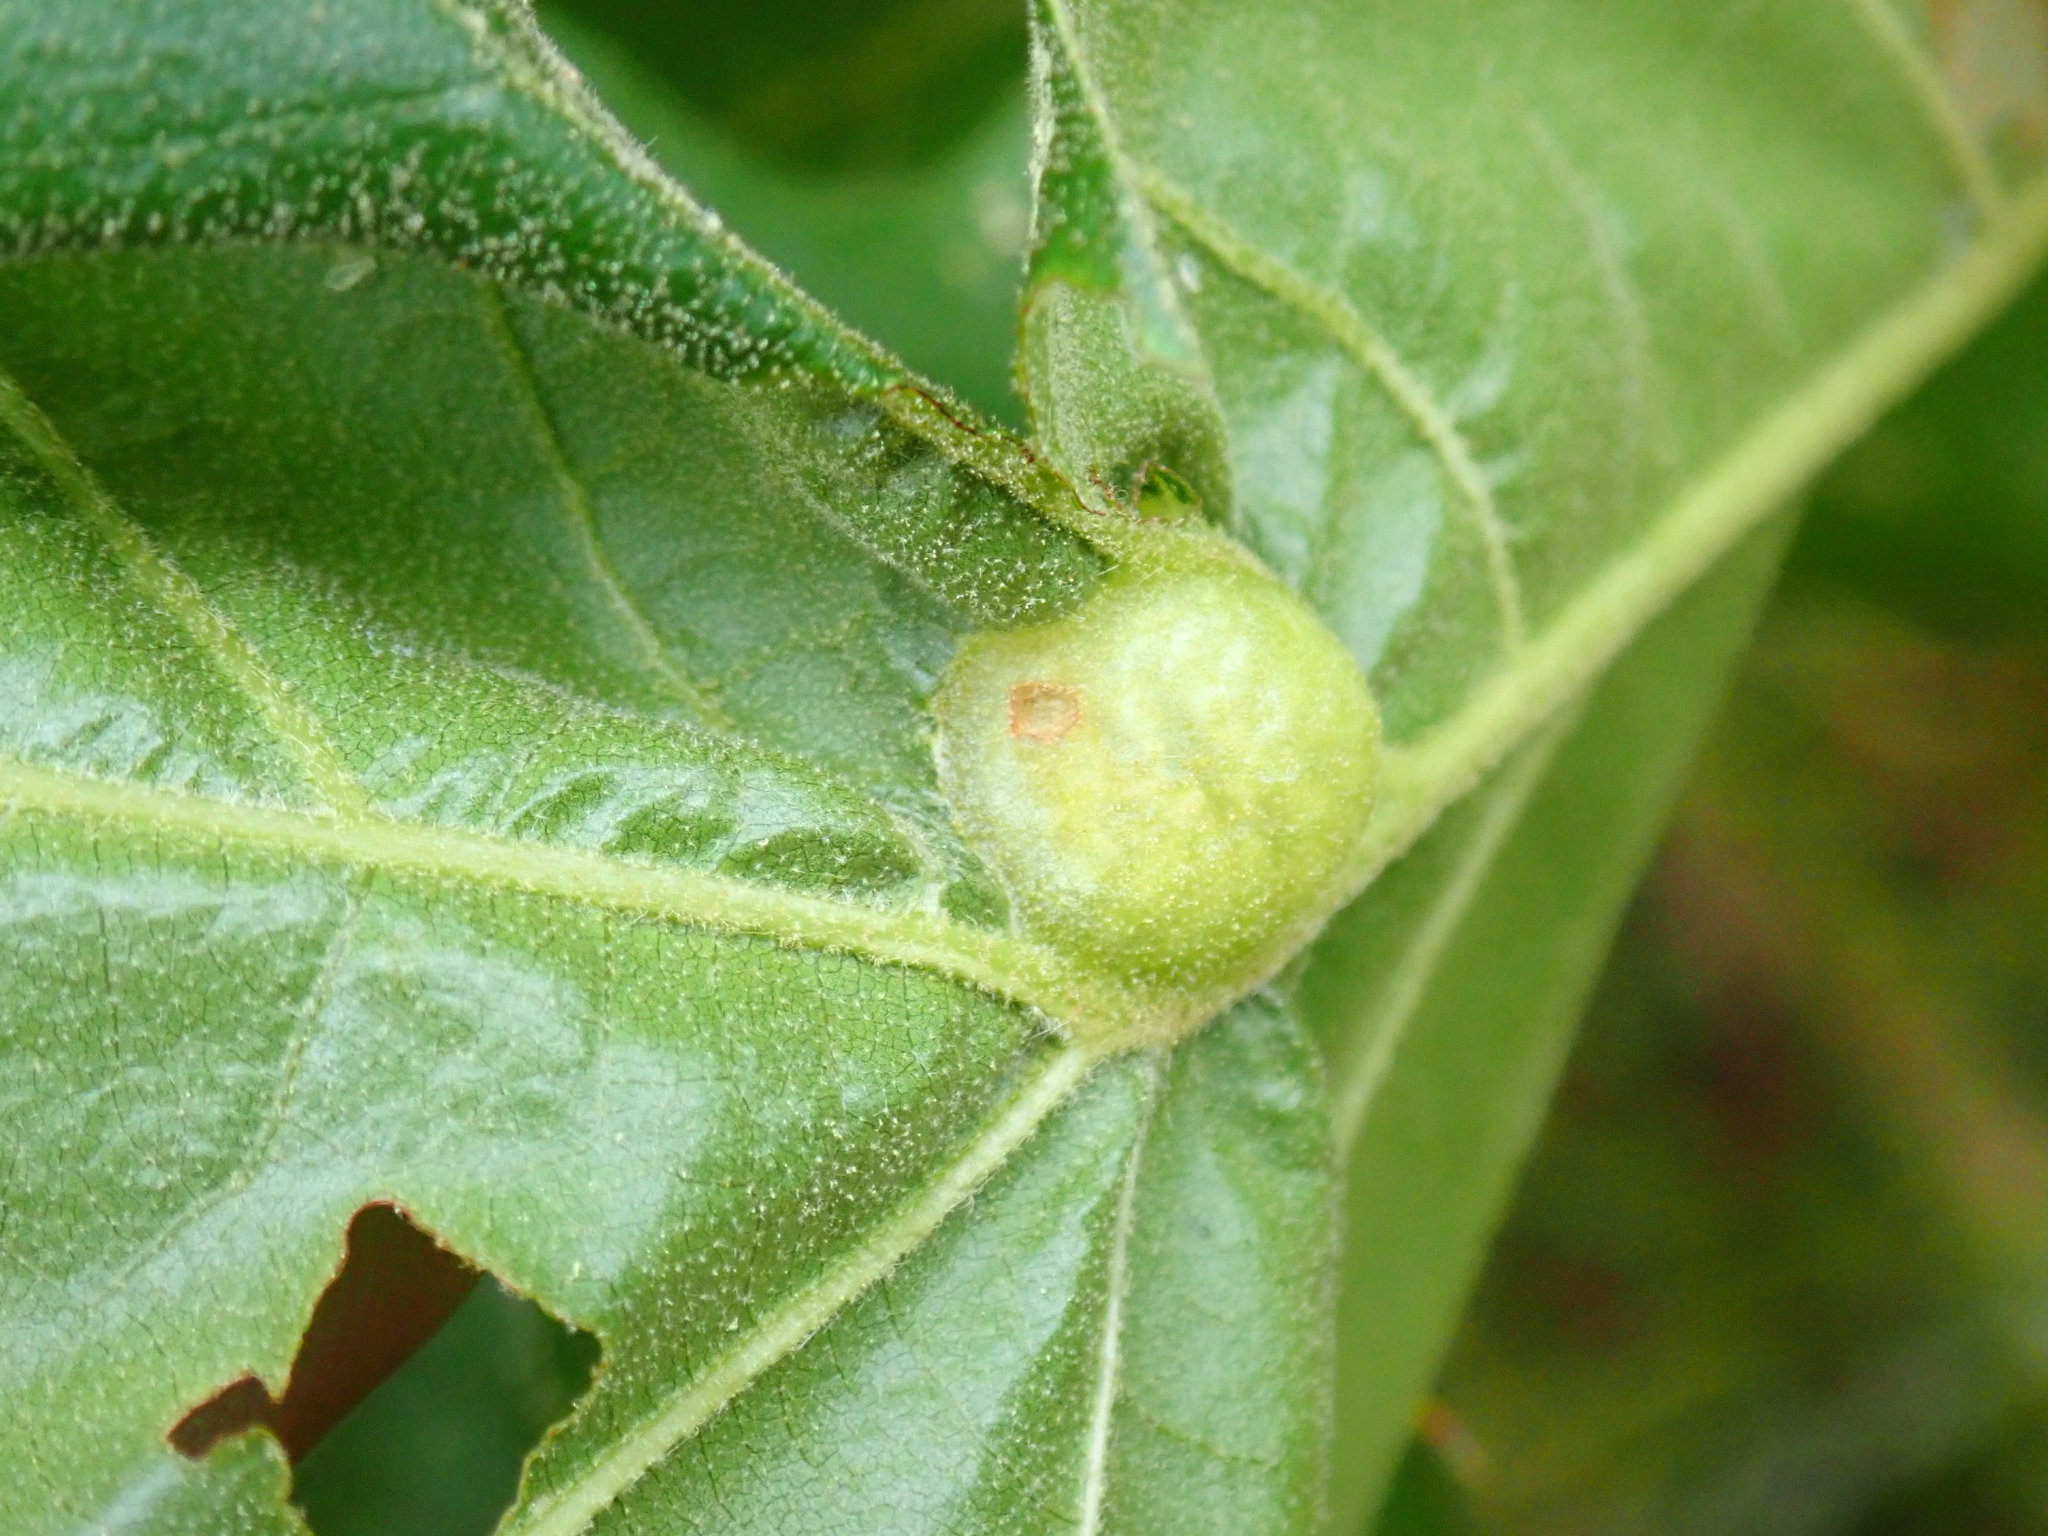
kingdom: Animalia
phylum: Arthropoda
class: Insecta
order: Hymenoptera
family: Cynipidae
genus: Dryocosmus
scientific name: Dryocosmus quercuspalustris
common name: Succulent oak gall wasp
